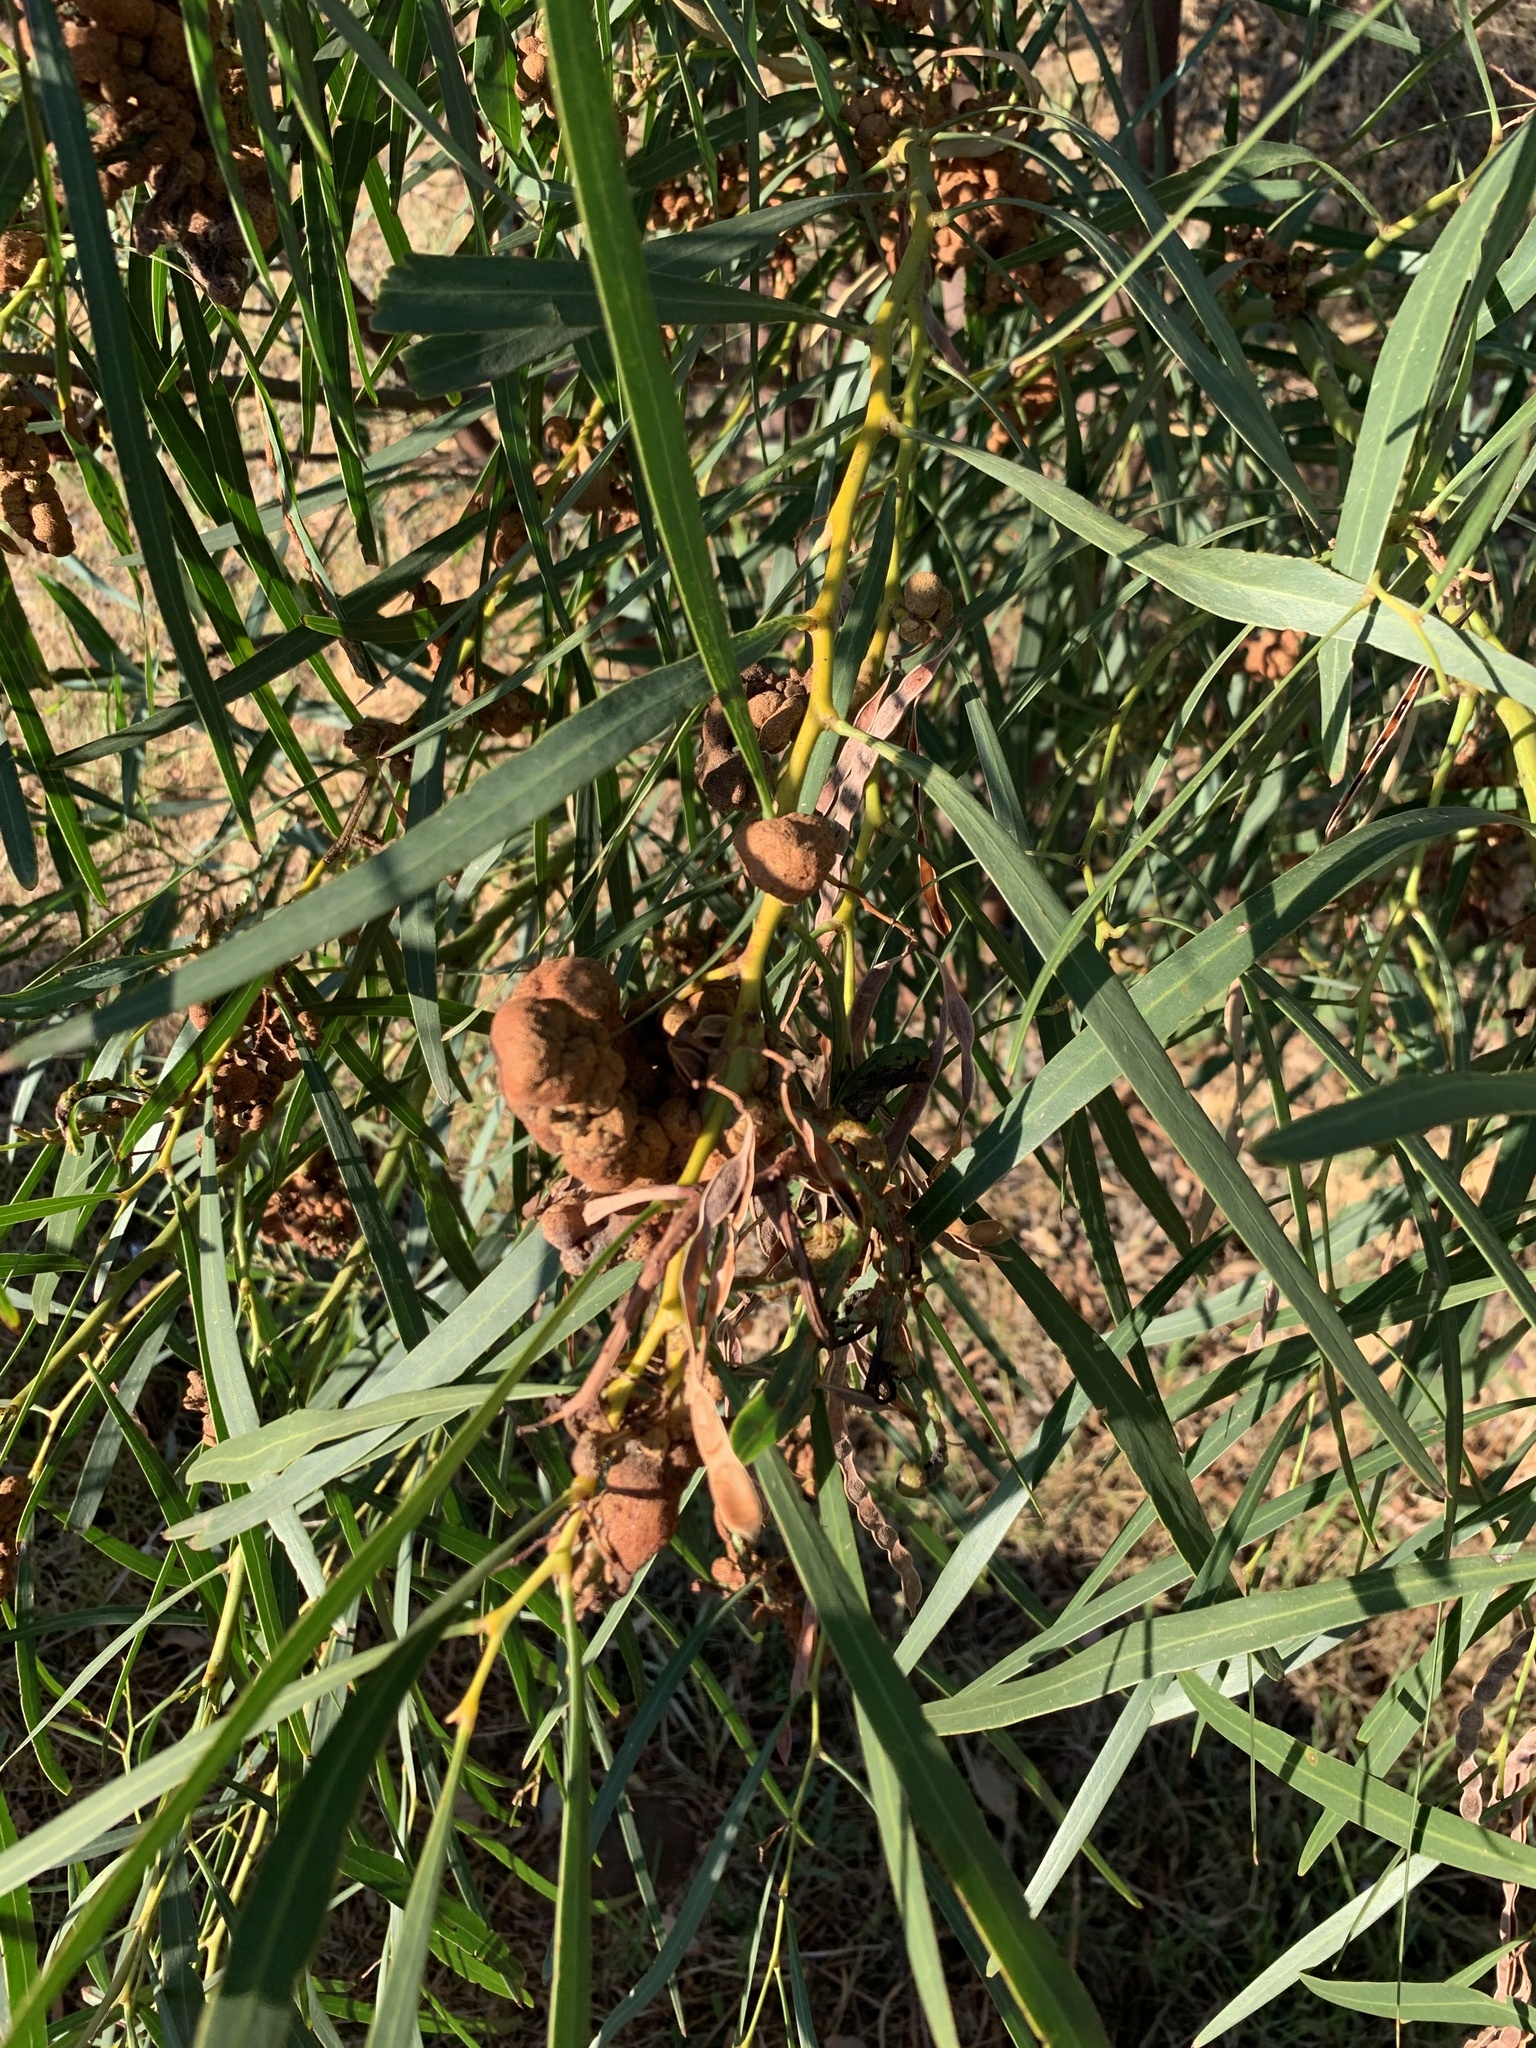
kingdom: Plantae
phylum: Tracheophyta
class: Magnoliopsida
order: Fabales
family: Fabaceae
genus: Acacia
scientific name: Acacia saligna
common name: Orange wattle
